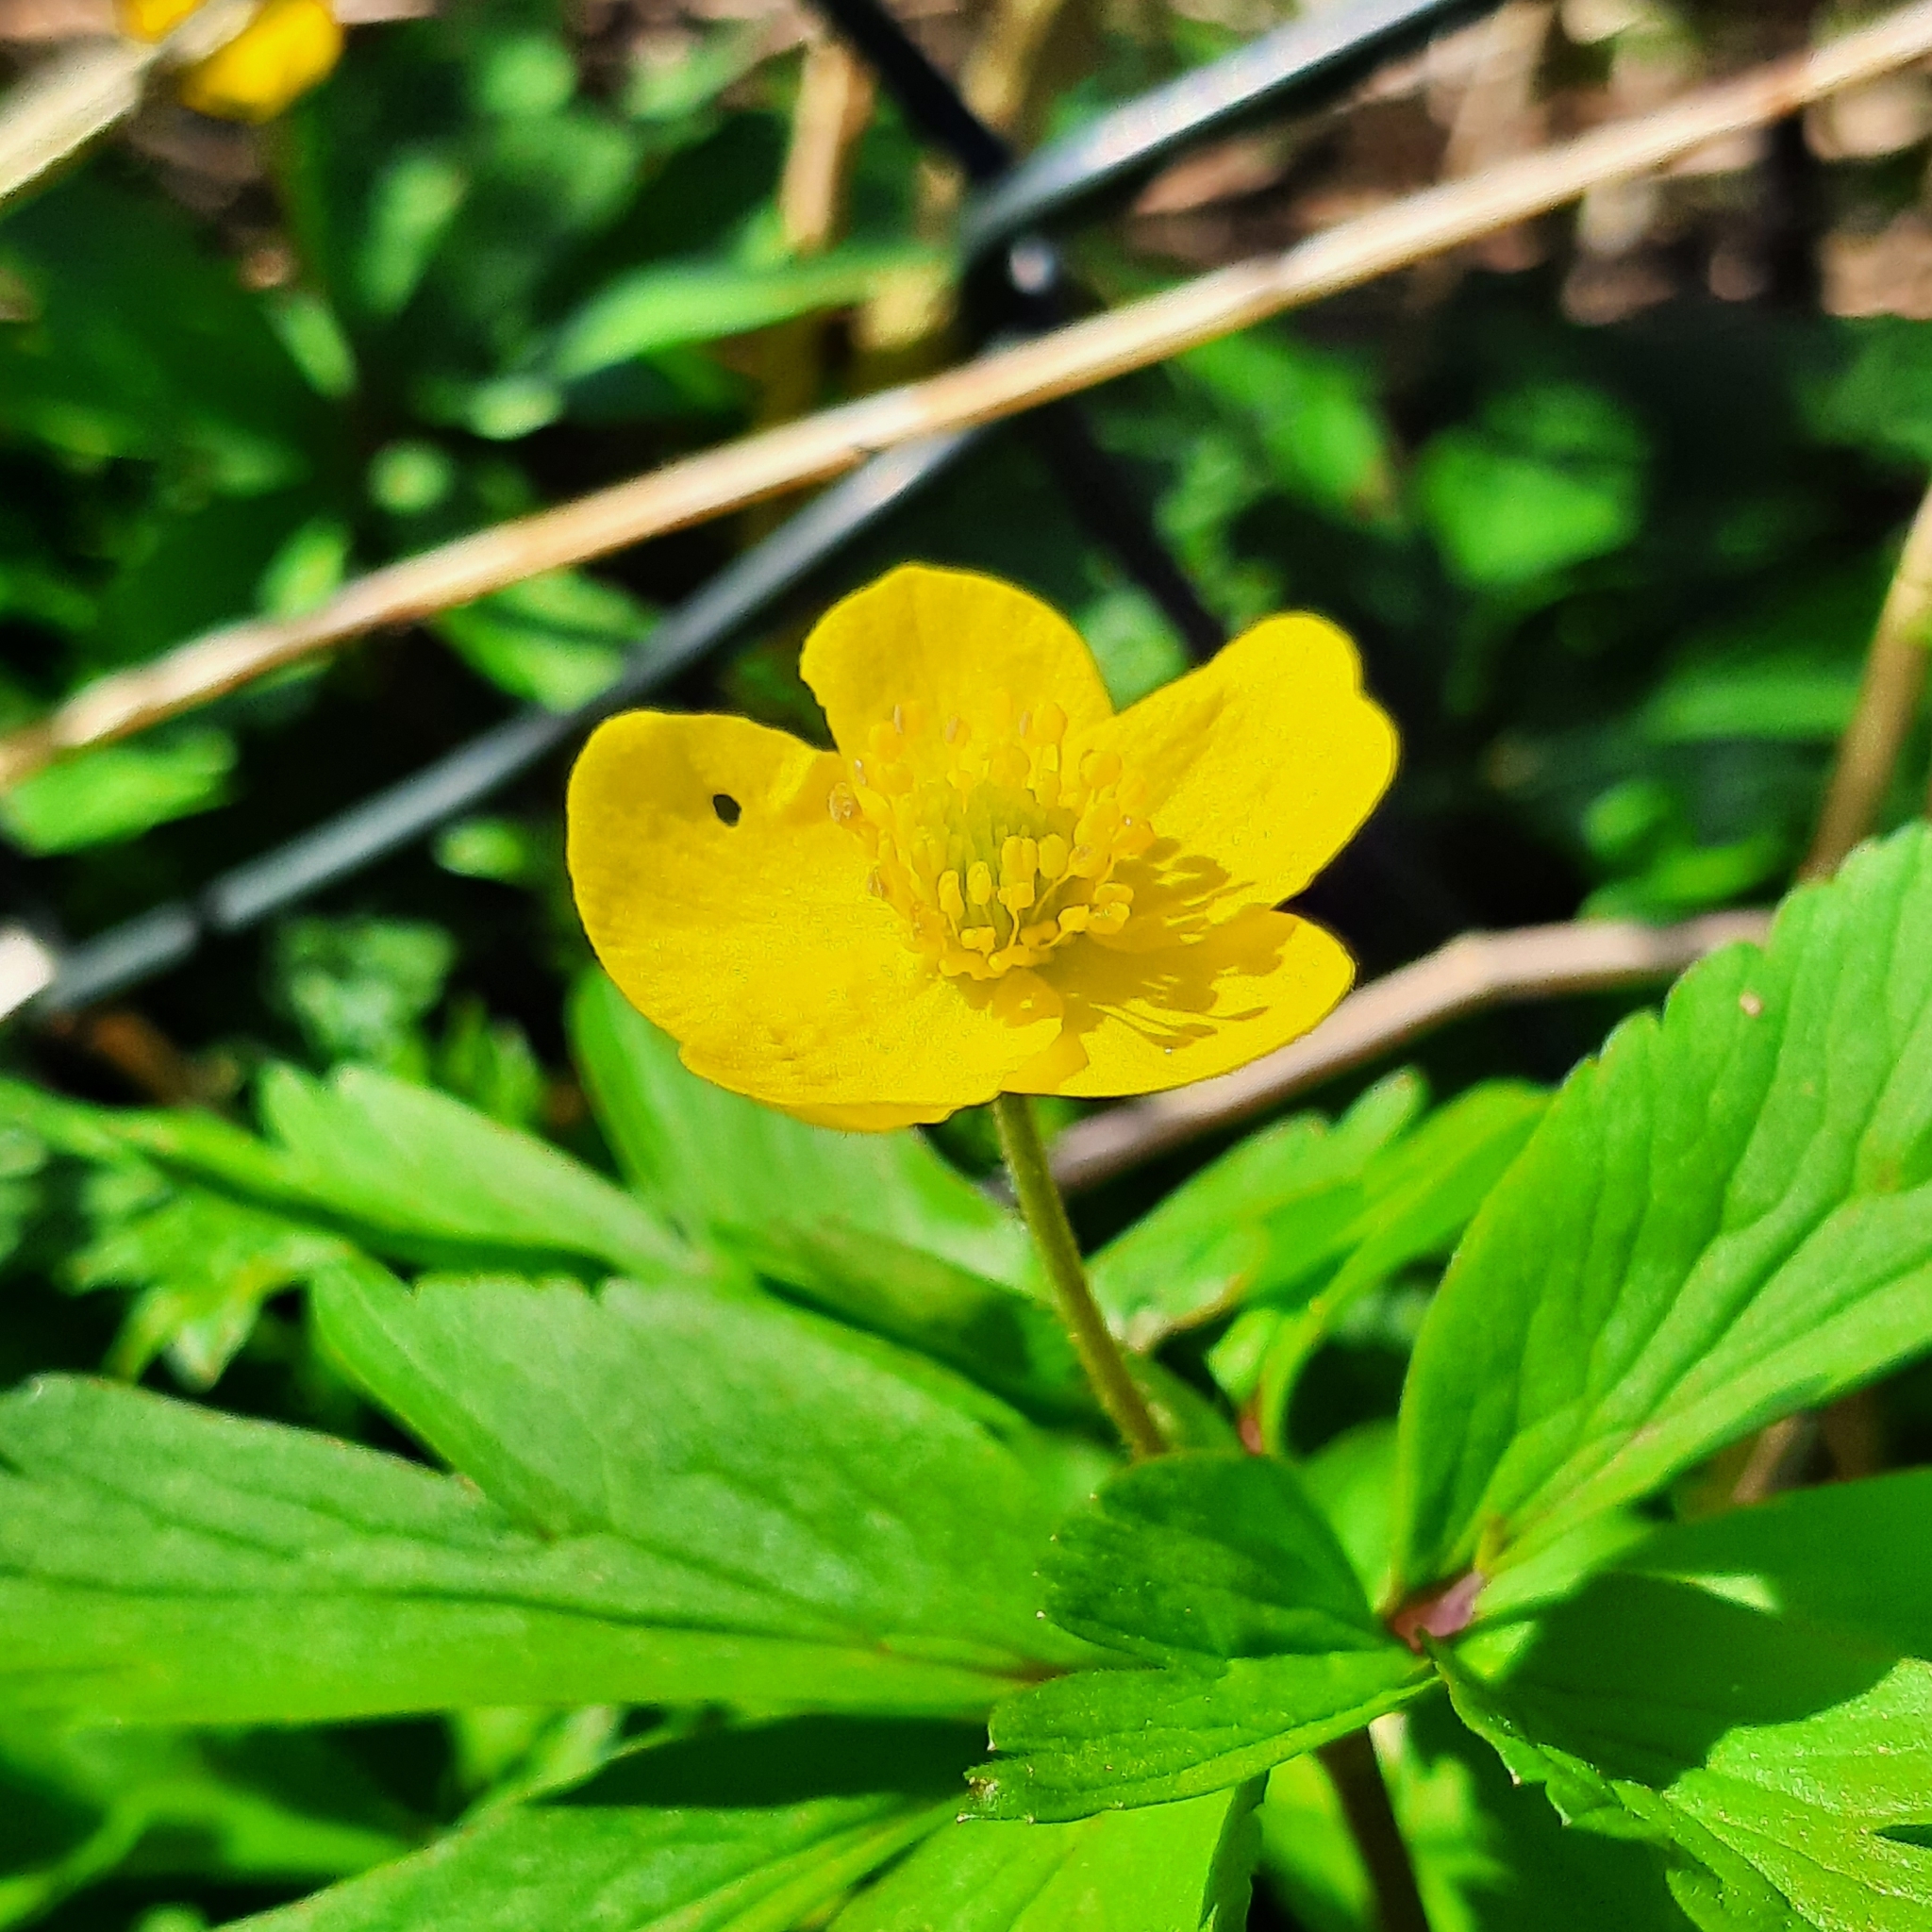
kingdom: Plantae
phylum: Tracheophyta
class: Magnoliopsida
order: Ranunculales
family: Ranunculaceae
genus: Anemone
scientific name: Anemone ranunculoides
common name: Yellow anemone
